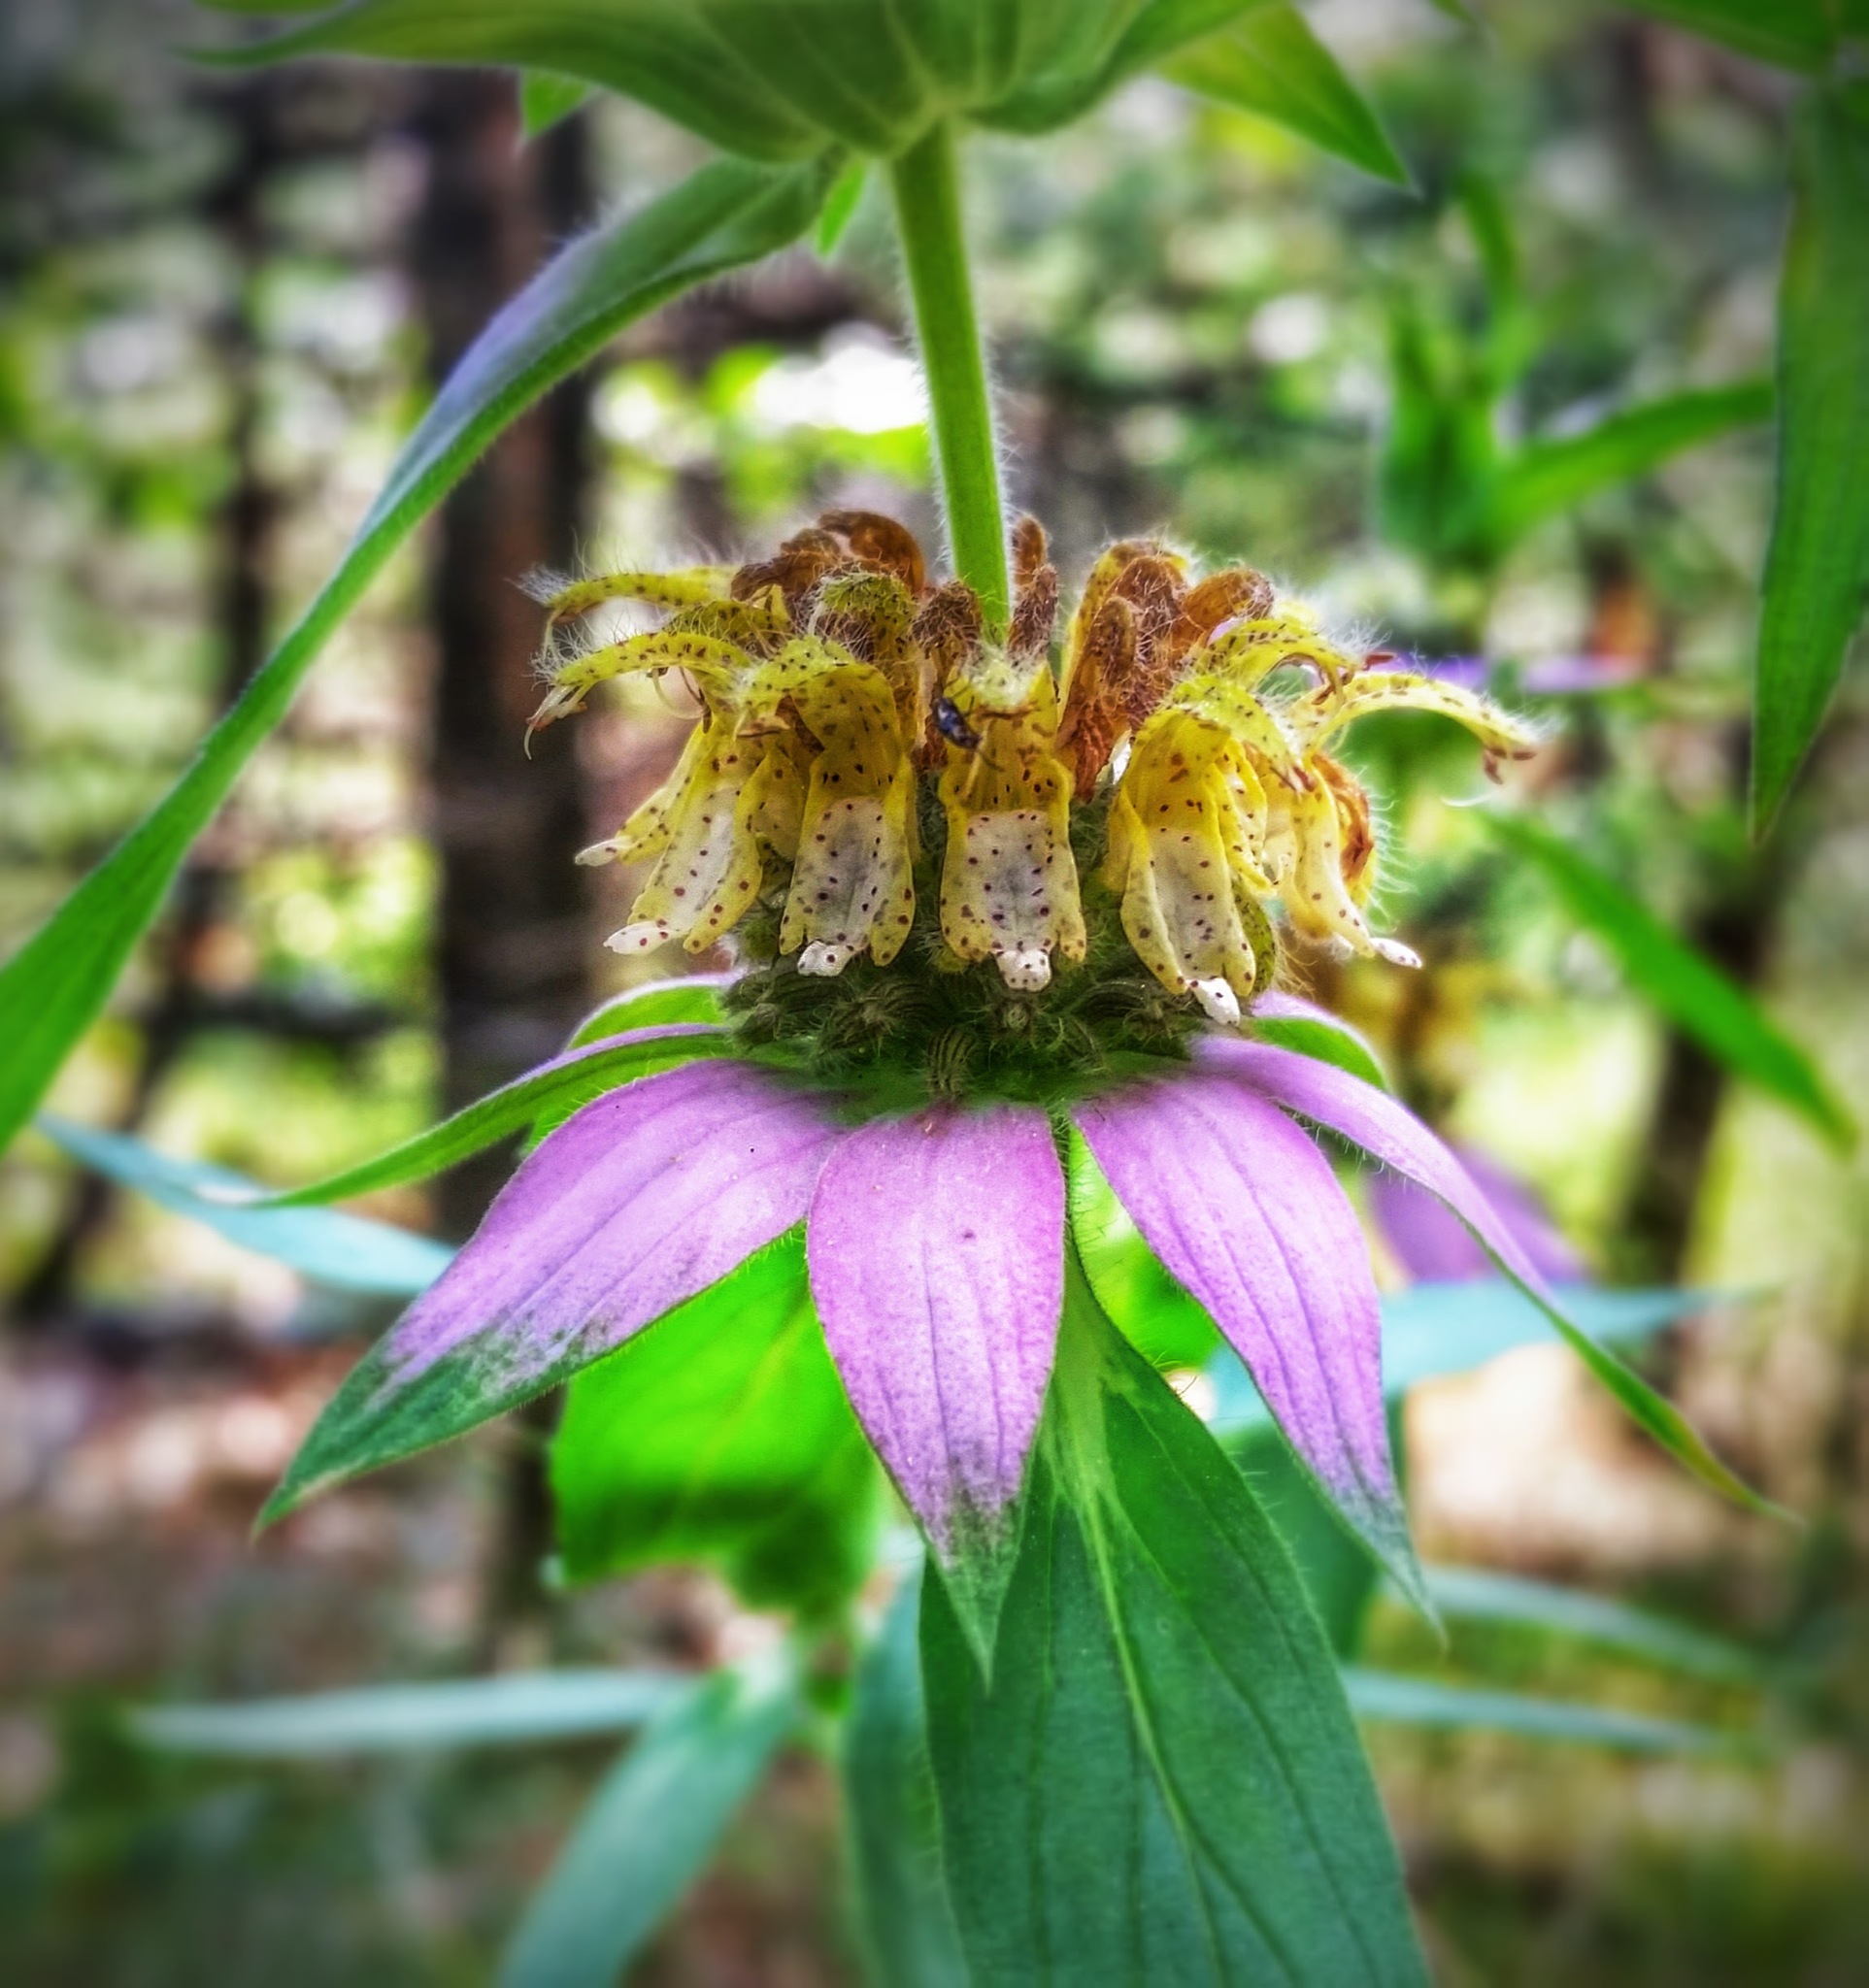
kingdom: Plantae
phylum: Tracheophyta
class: Magnoliopsida
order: Lamiales
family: Lamiaceae
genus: Monarda
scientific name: Monarda punctata
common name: Dotted monarda
